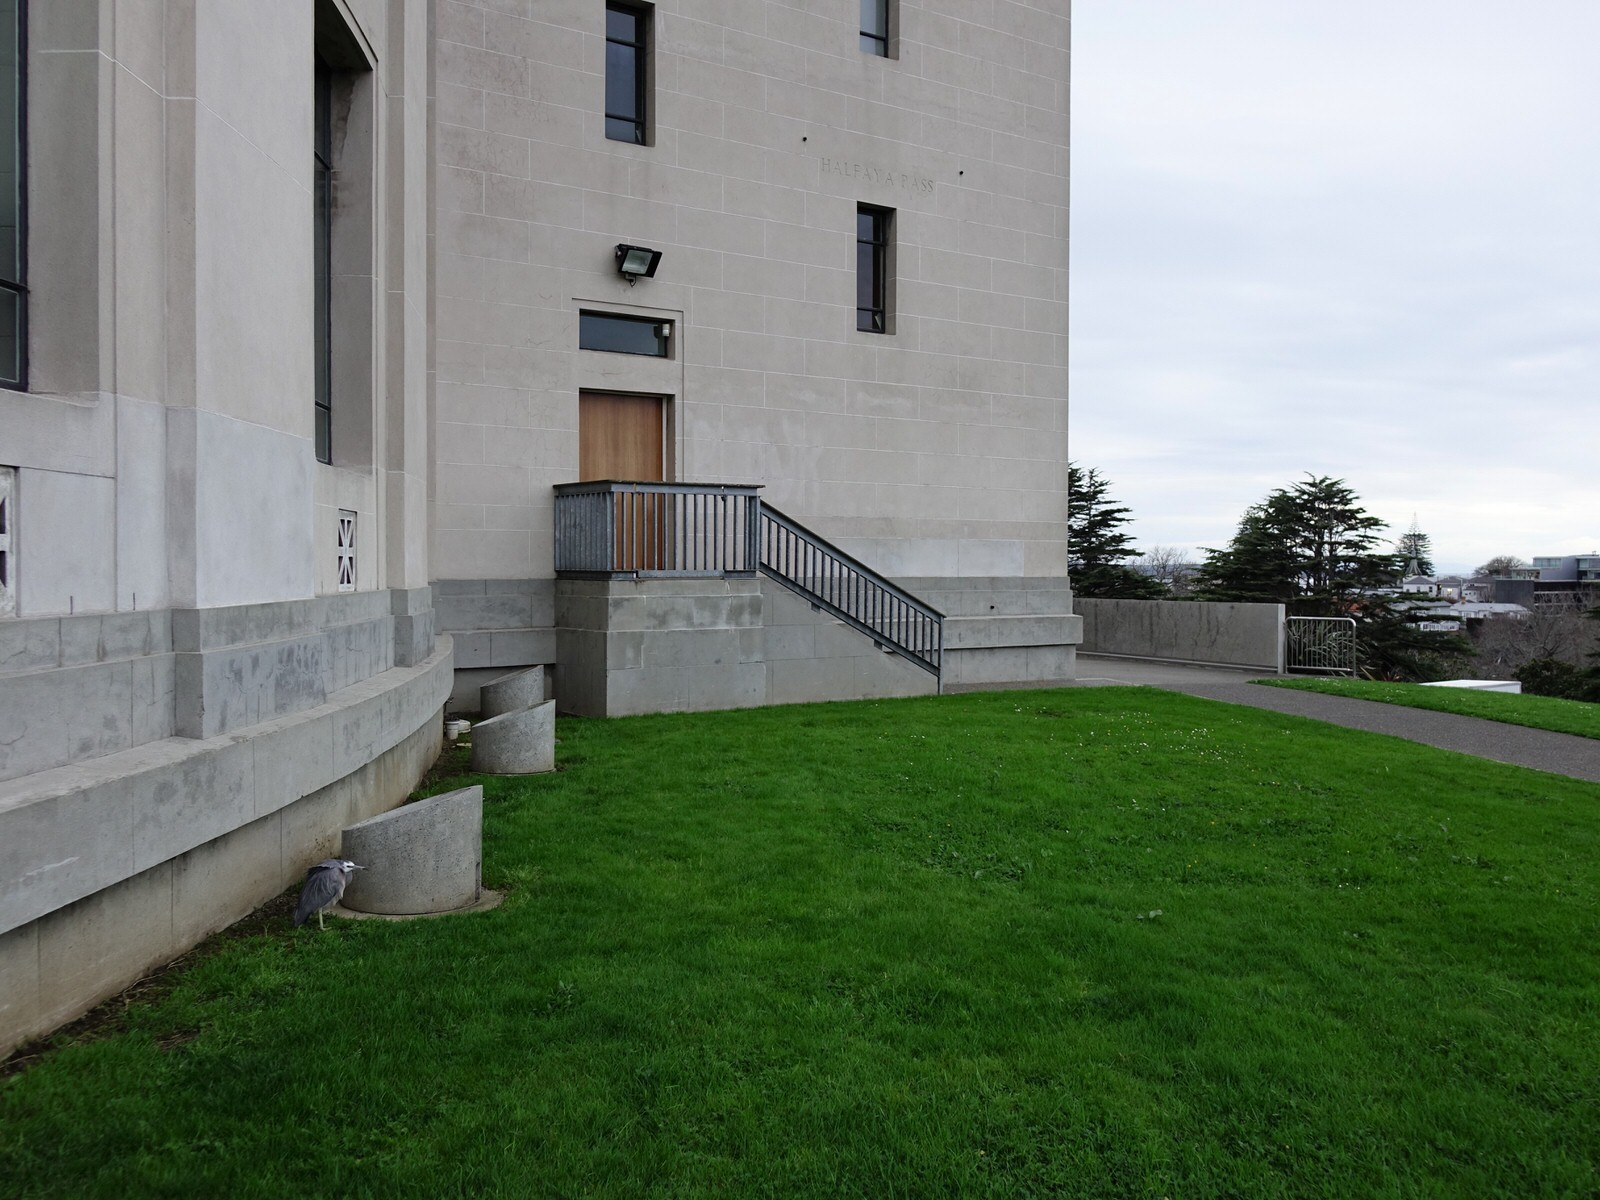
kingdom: Animalia
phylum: Chordata
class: Aves
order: Pelecaniformes
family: Ardeidae
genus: Egretta
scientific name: Egretta novaehollandiae
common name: White-faced heron
